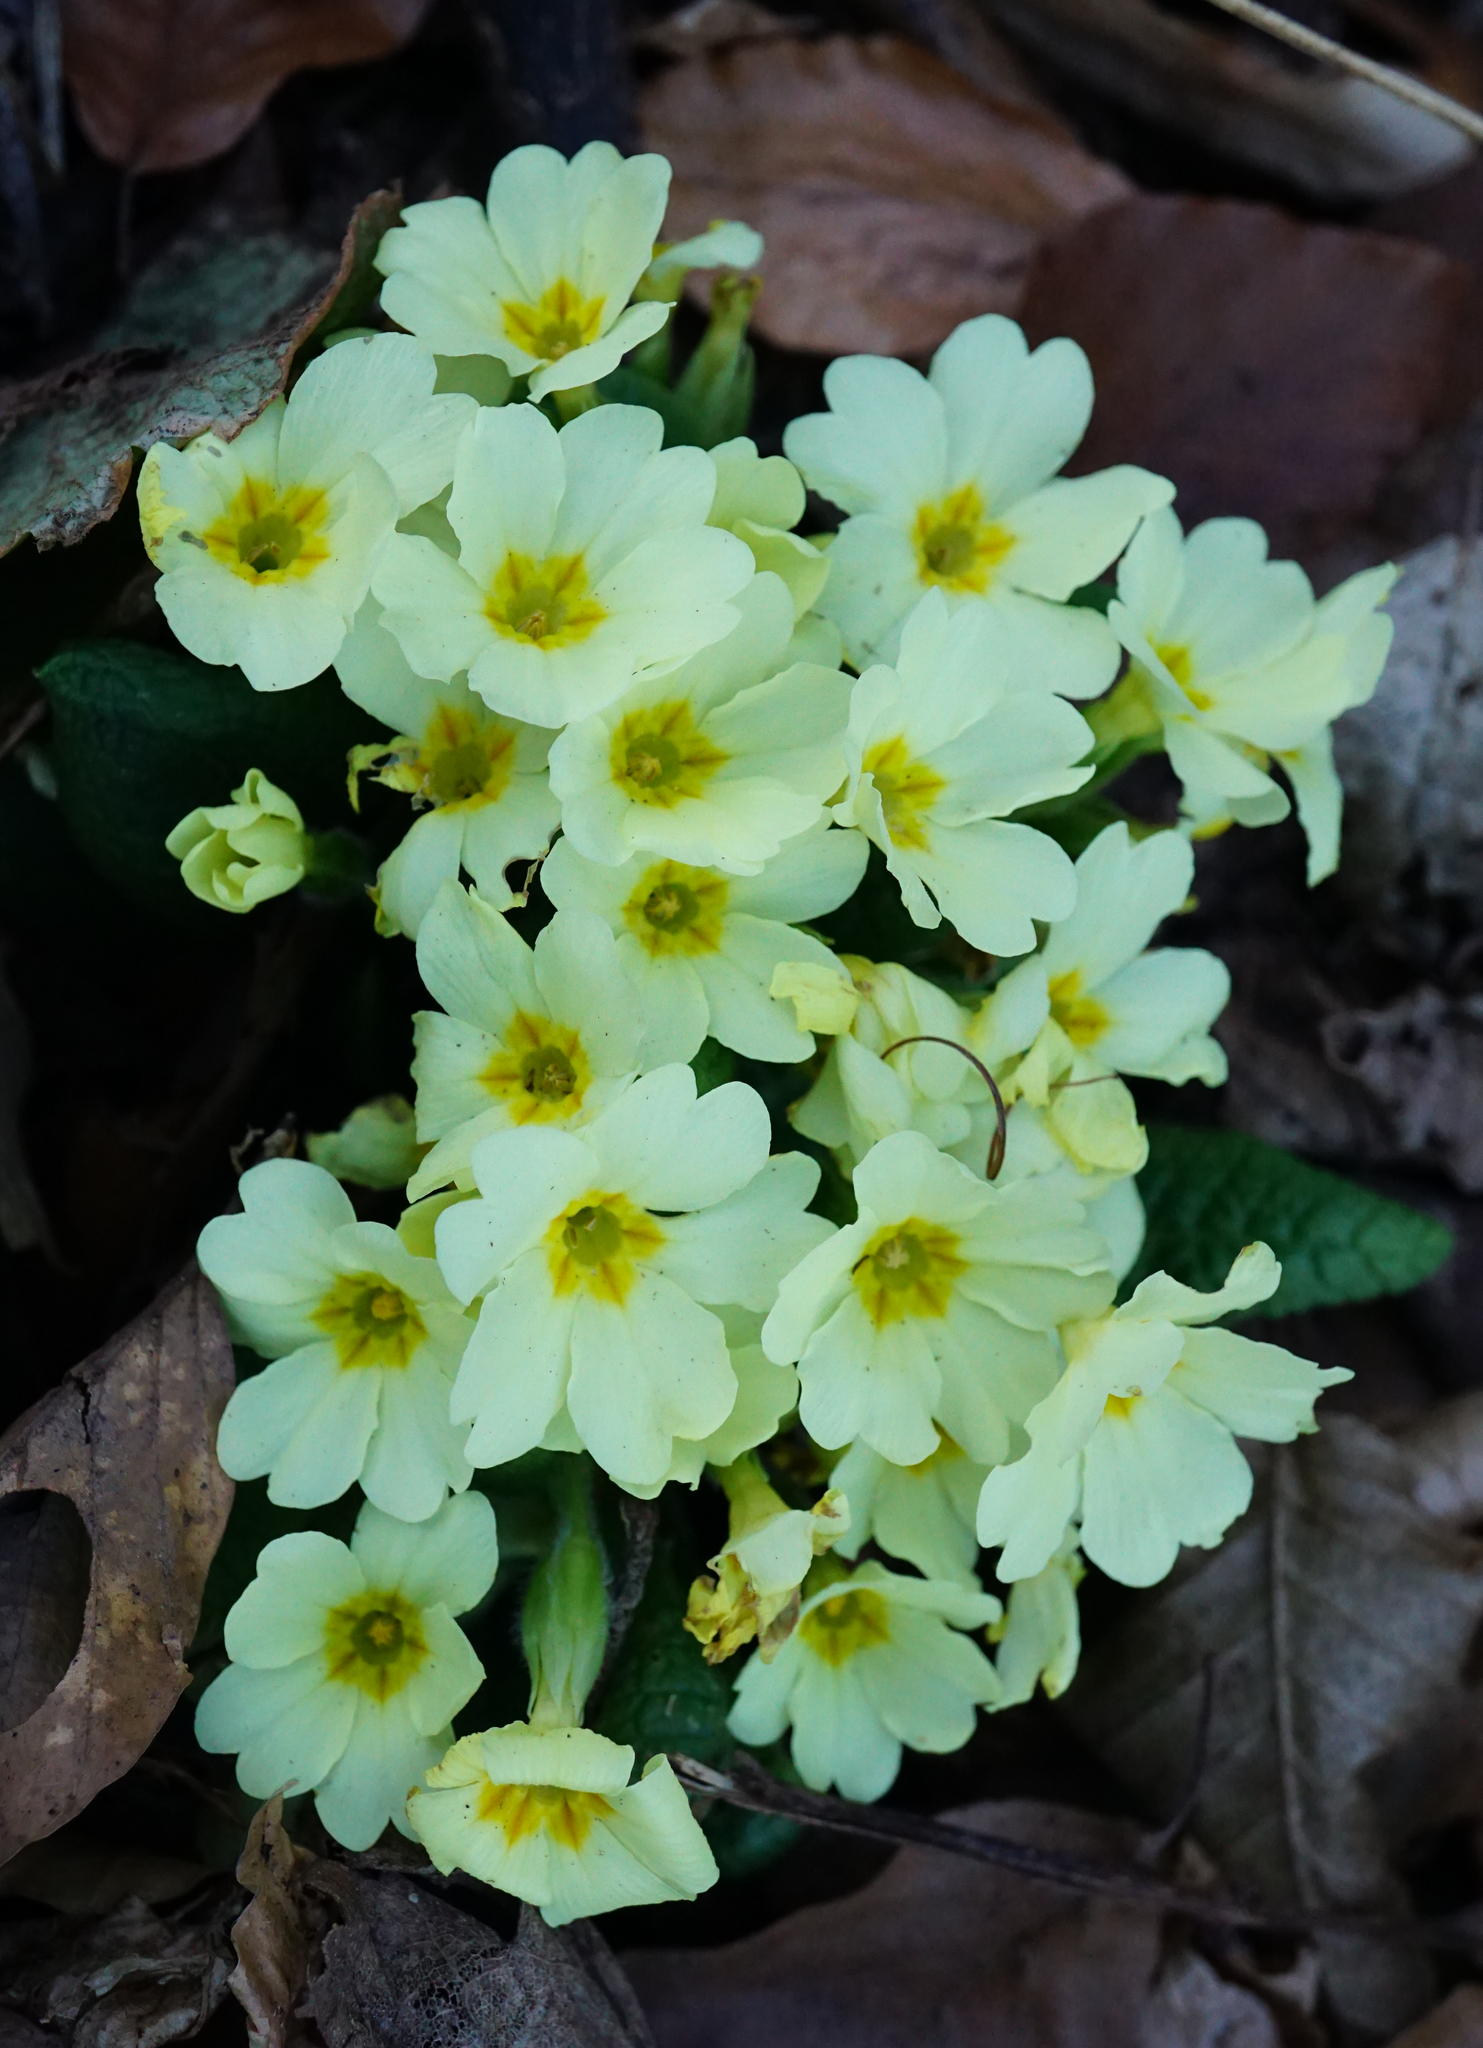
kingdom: Plantae
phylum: Tracheophyta
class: Magnoliopsida
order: Ericales
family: Primulaceae
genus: Primula
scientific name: Primula vulgaris
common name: Primrose
